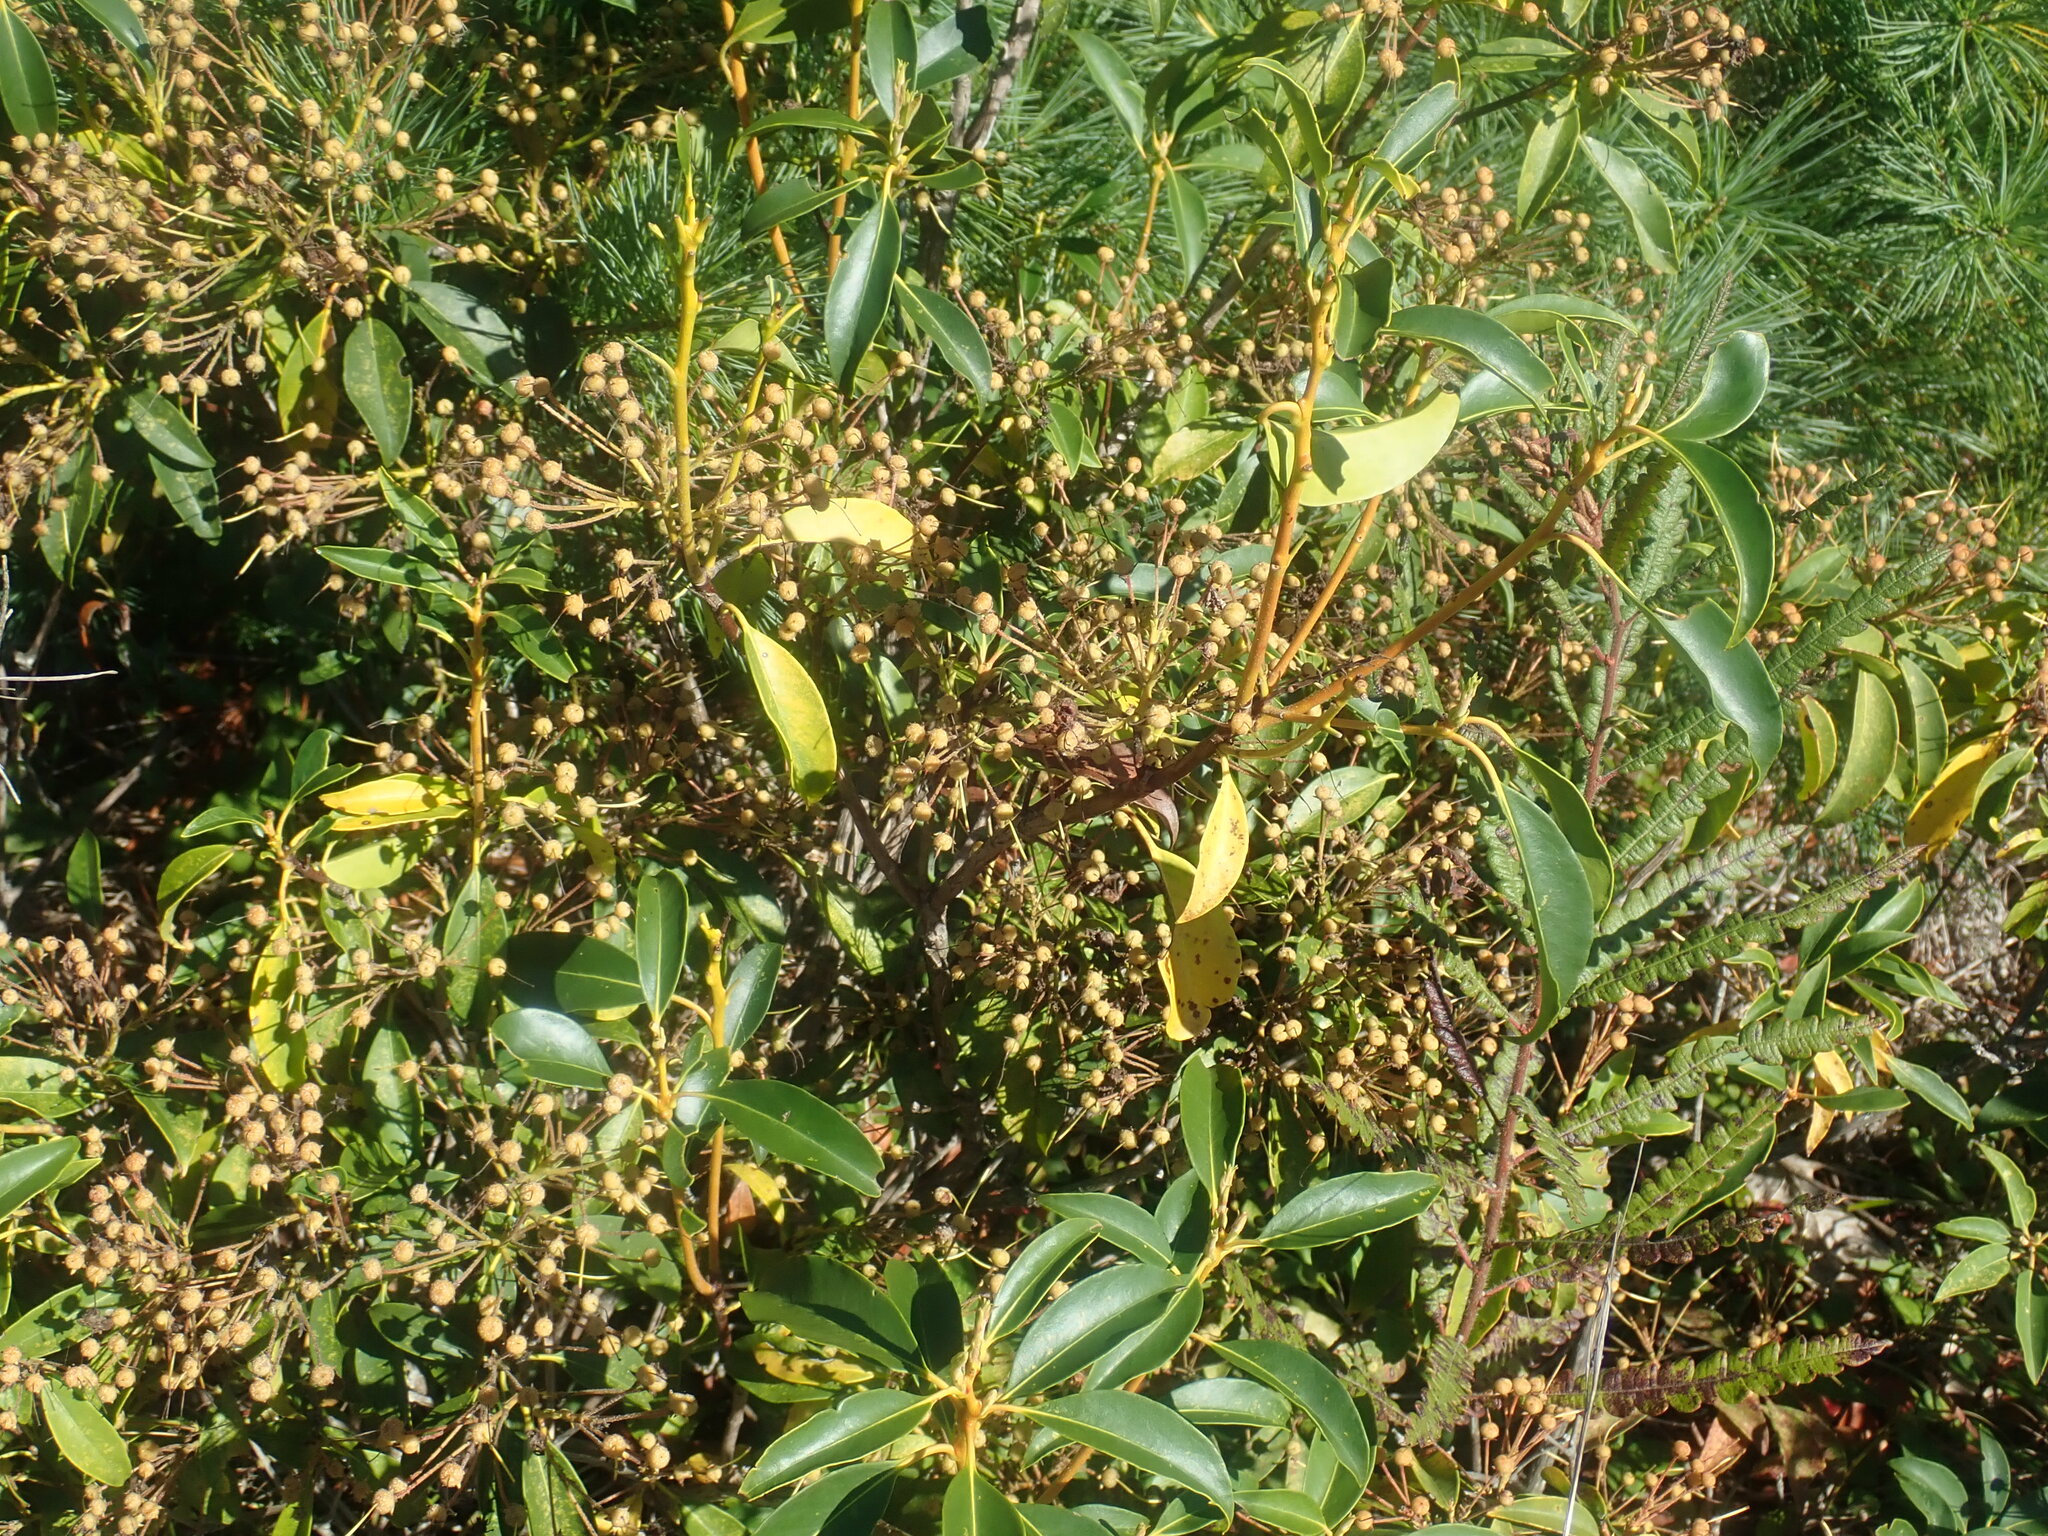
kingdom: Plantae
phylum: Tracheophyta
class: Magnoliopsida
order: Ericales
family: Ericaceae
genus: Kalmia
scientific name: Kalmia latifolia
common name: Mountain-laurel
